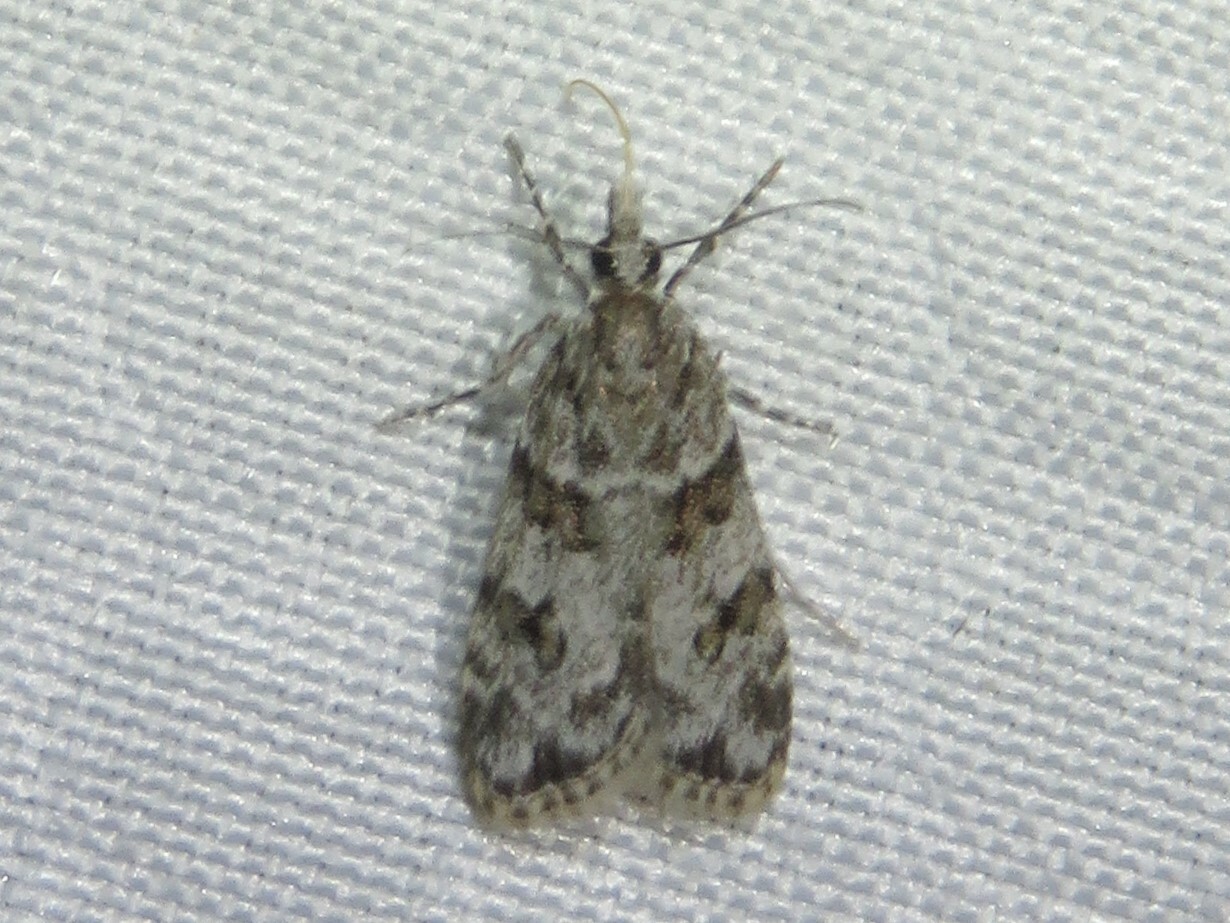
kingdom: Animalia
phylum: Arthropoda
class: Insecta
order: Lepidoptera
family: Crambidae
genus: Scoparia
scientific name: Scoparia biplagialis
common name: Double-striped scoparia moth
